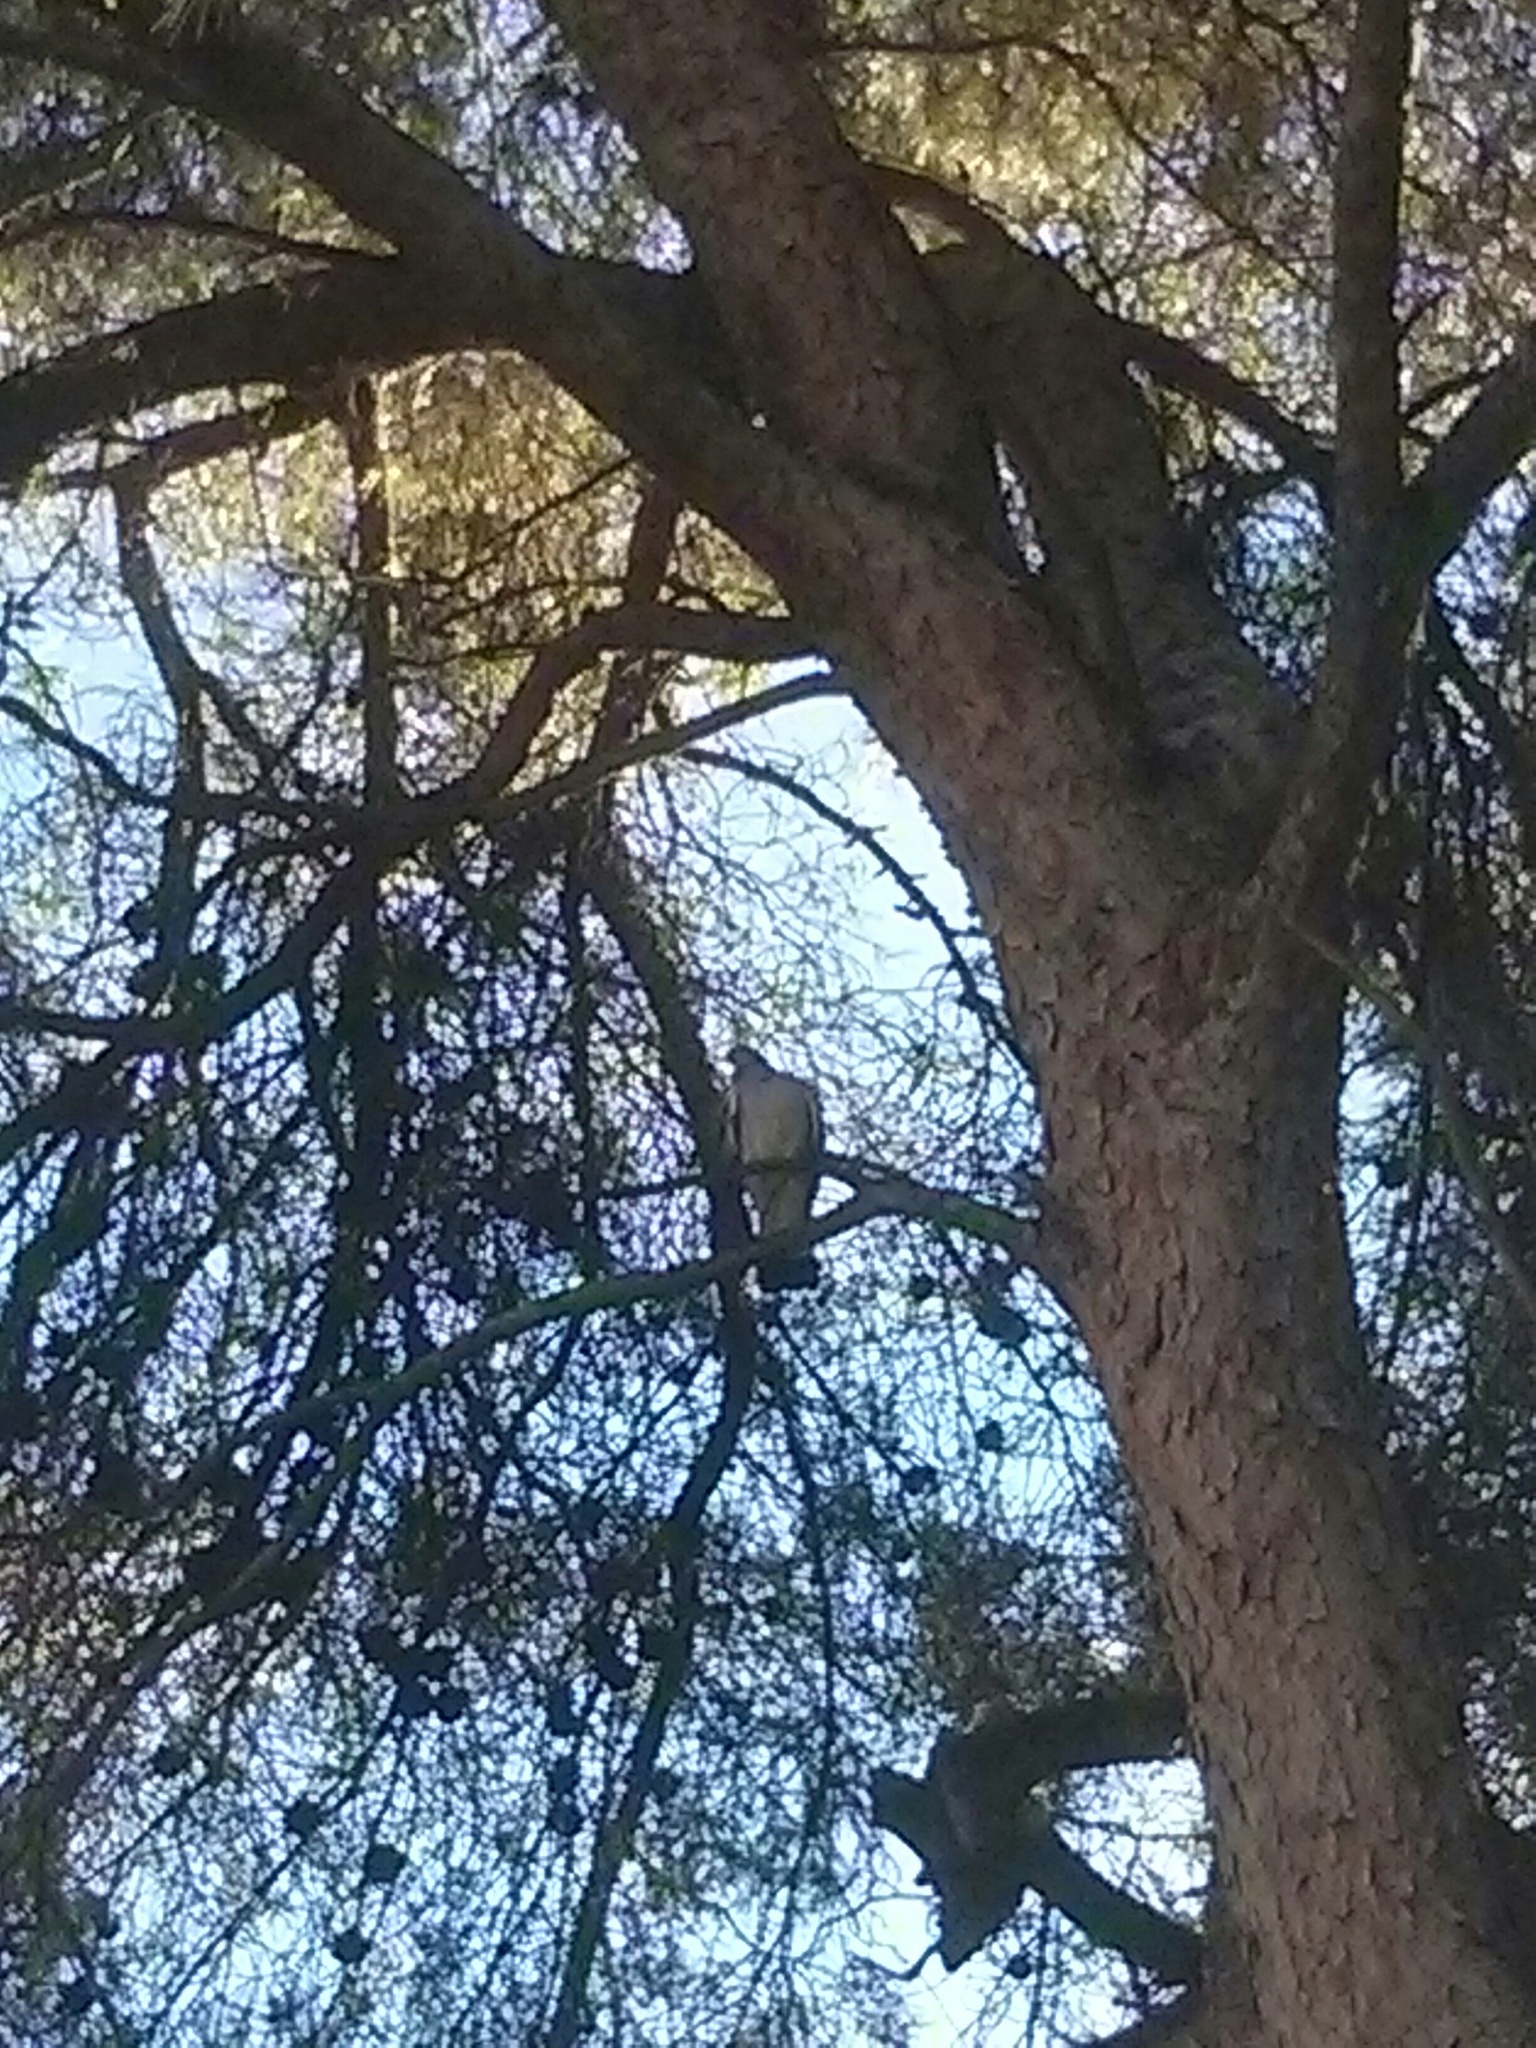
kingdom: Animalia
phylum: Chordata
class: Aves
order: Columbiformes
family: Columbidae
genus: Columba
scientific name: Columba palumbus
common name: Common wood pigeon
